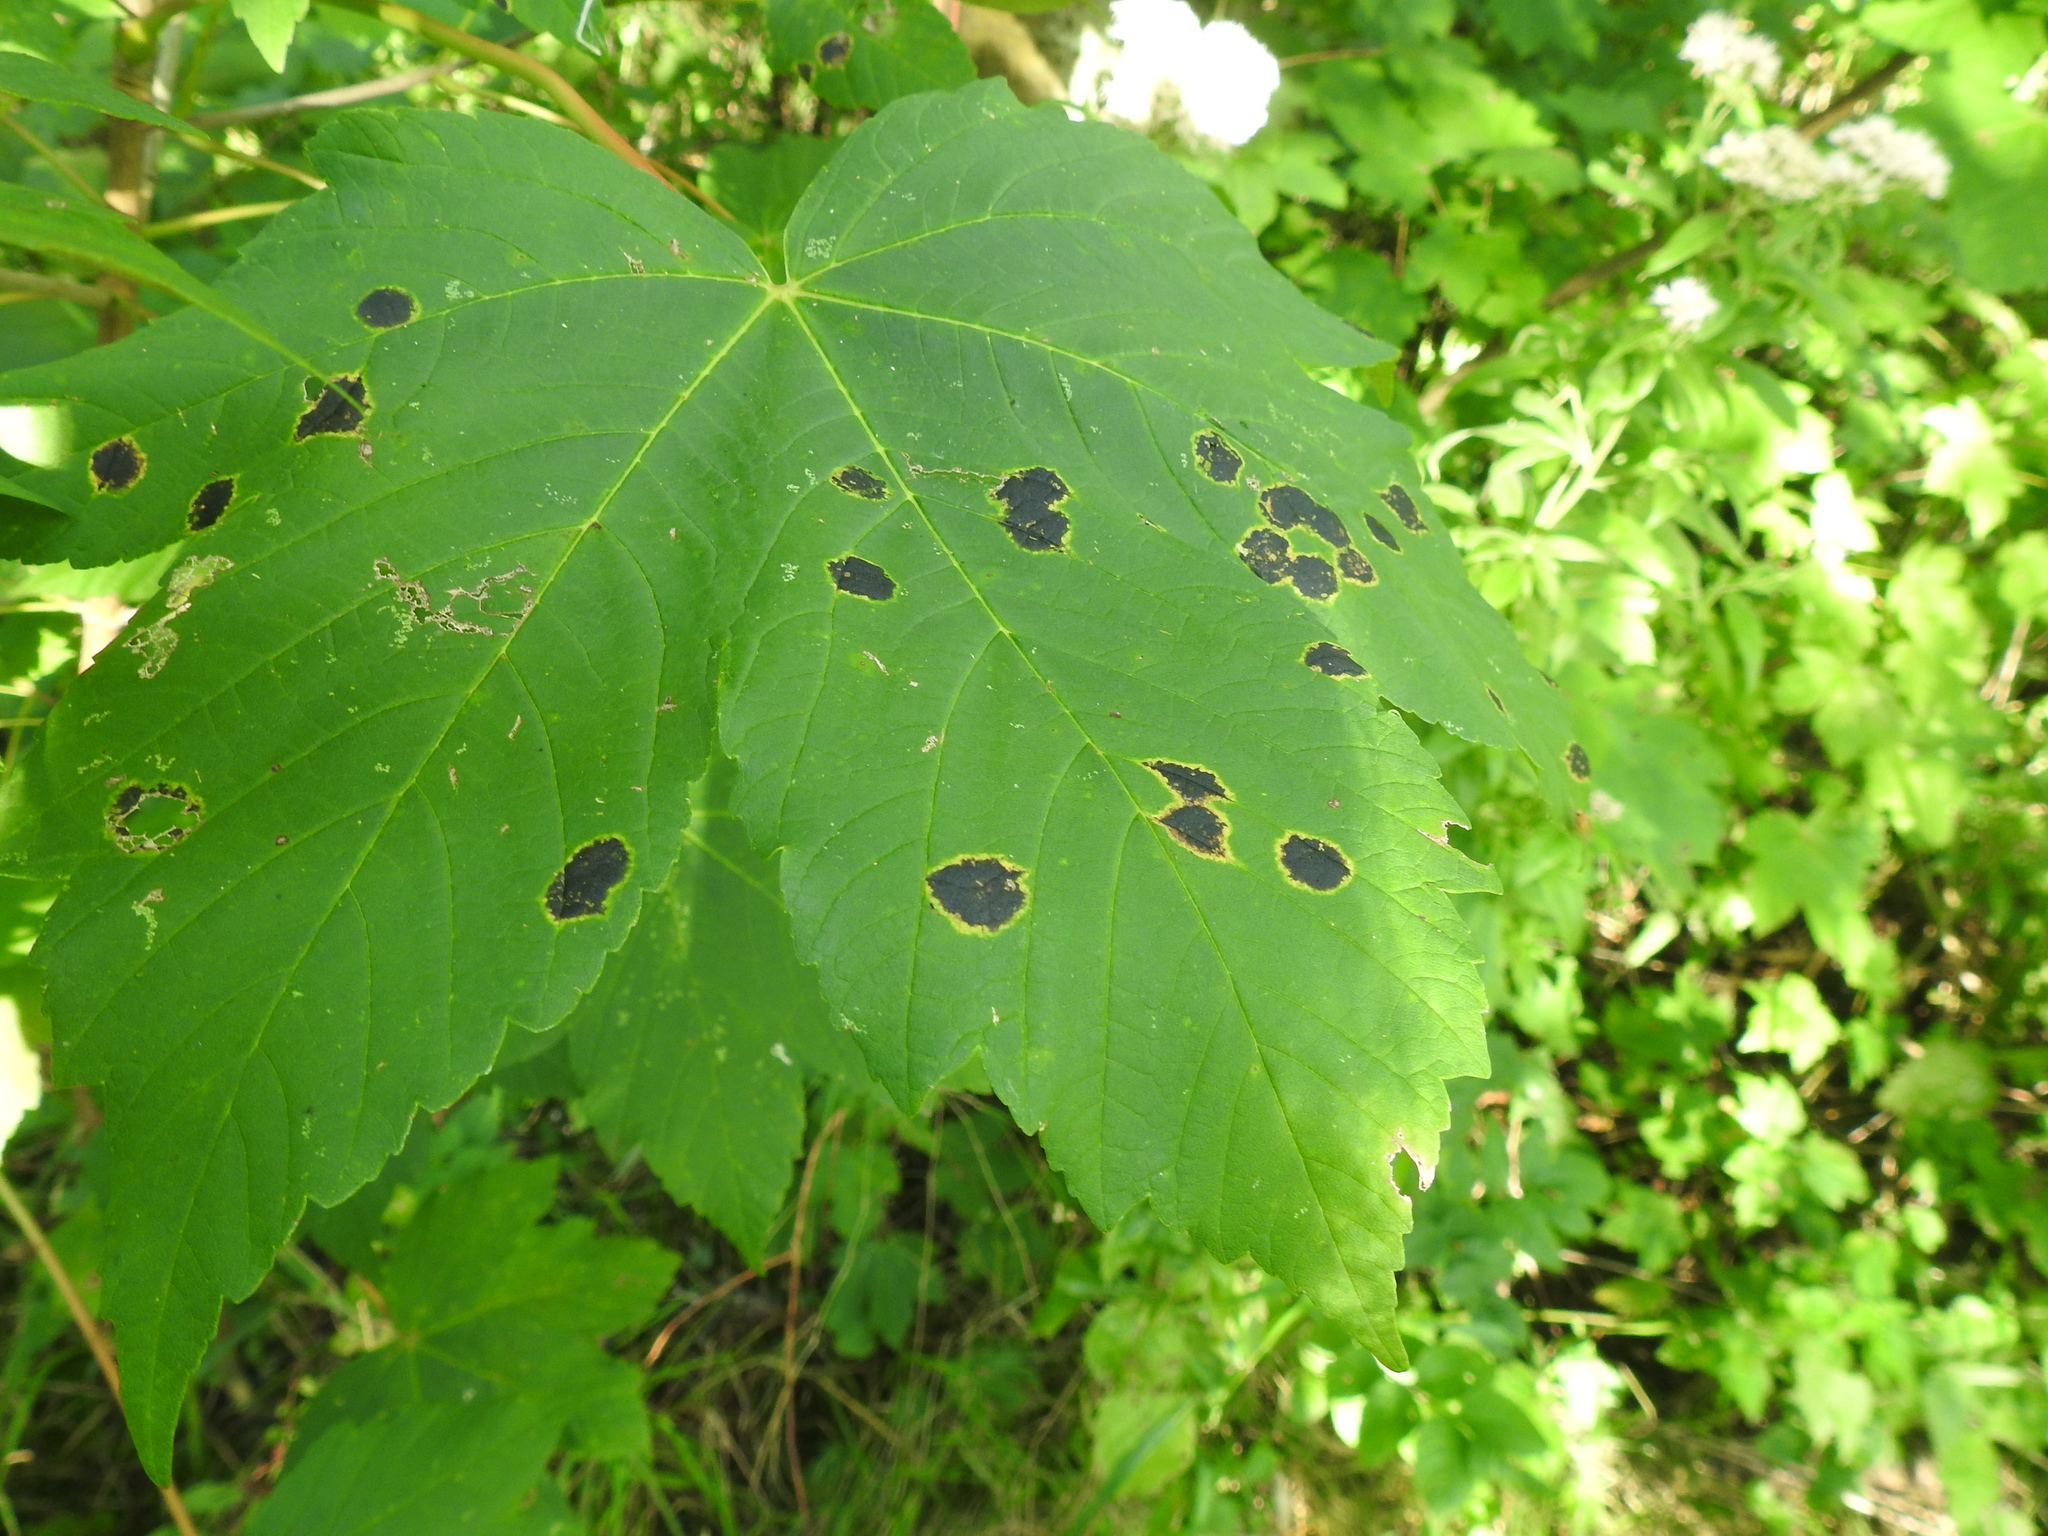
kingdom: Plantae
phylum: Tracheophyta
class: Magnoliopsida
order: Sapindales
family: Sapindaceae
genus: Acer
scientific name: Acer pseudoplatanus
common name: Sycamore
